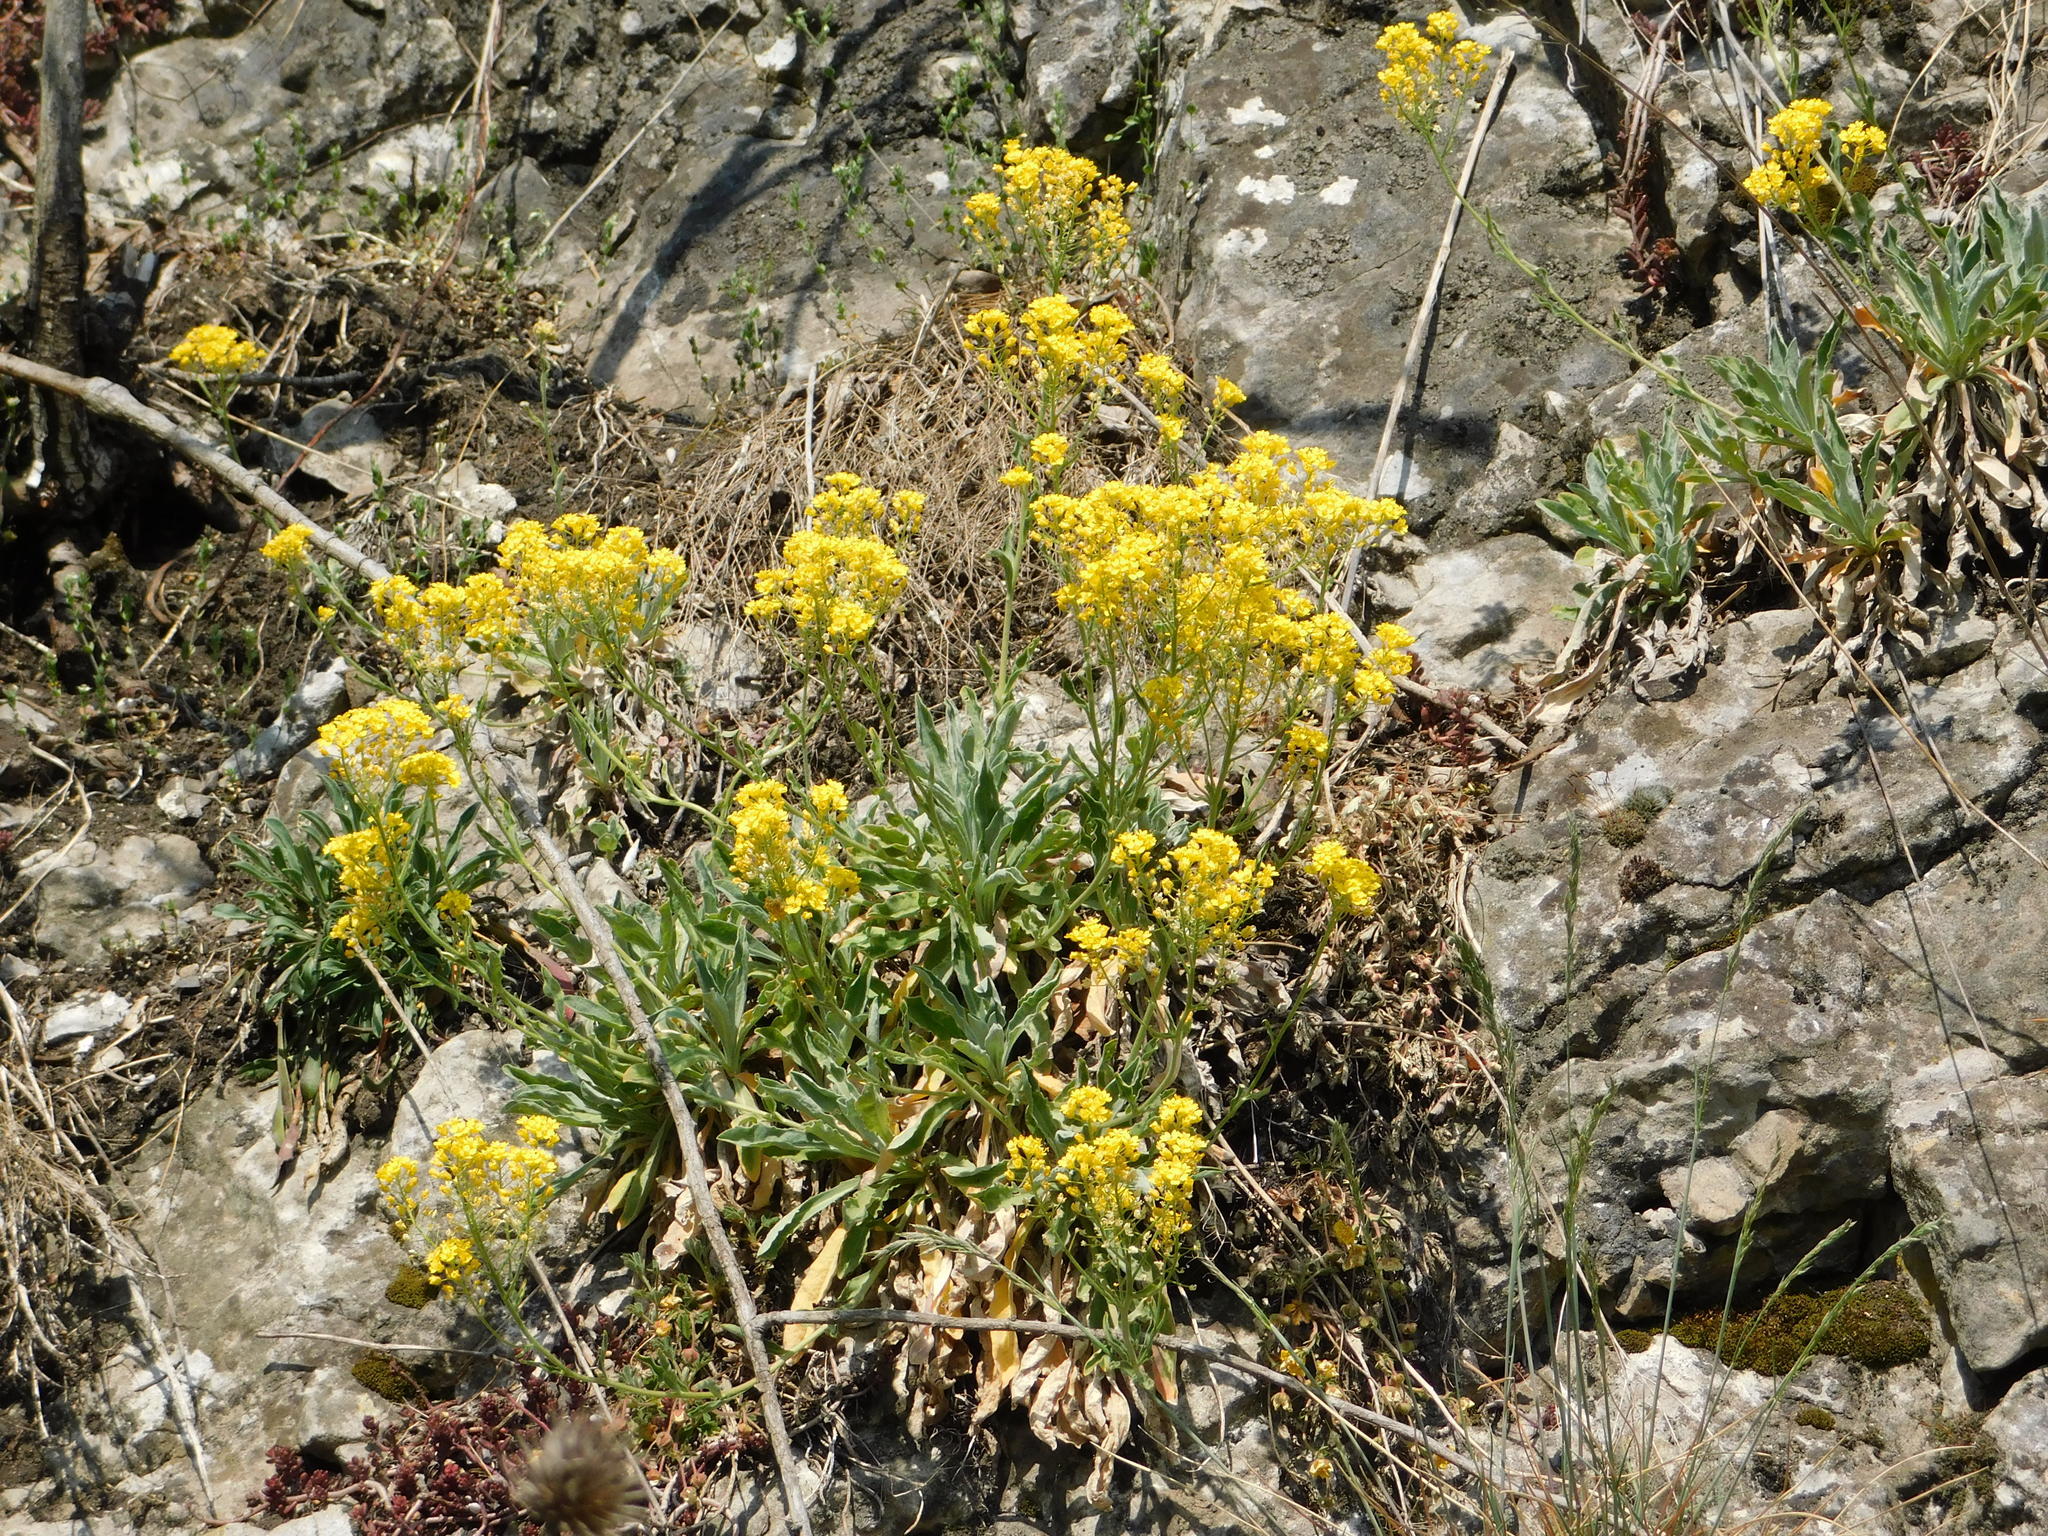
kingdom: Plantae
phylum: Tracheophyta
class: Magnoliopsida
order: Brassicales
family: Brassicaceae
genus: Aurinia
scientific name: Aurinia saxatilis
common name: Golden-tuft alyssum
